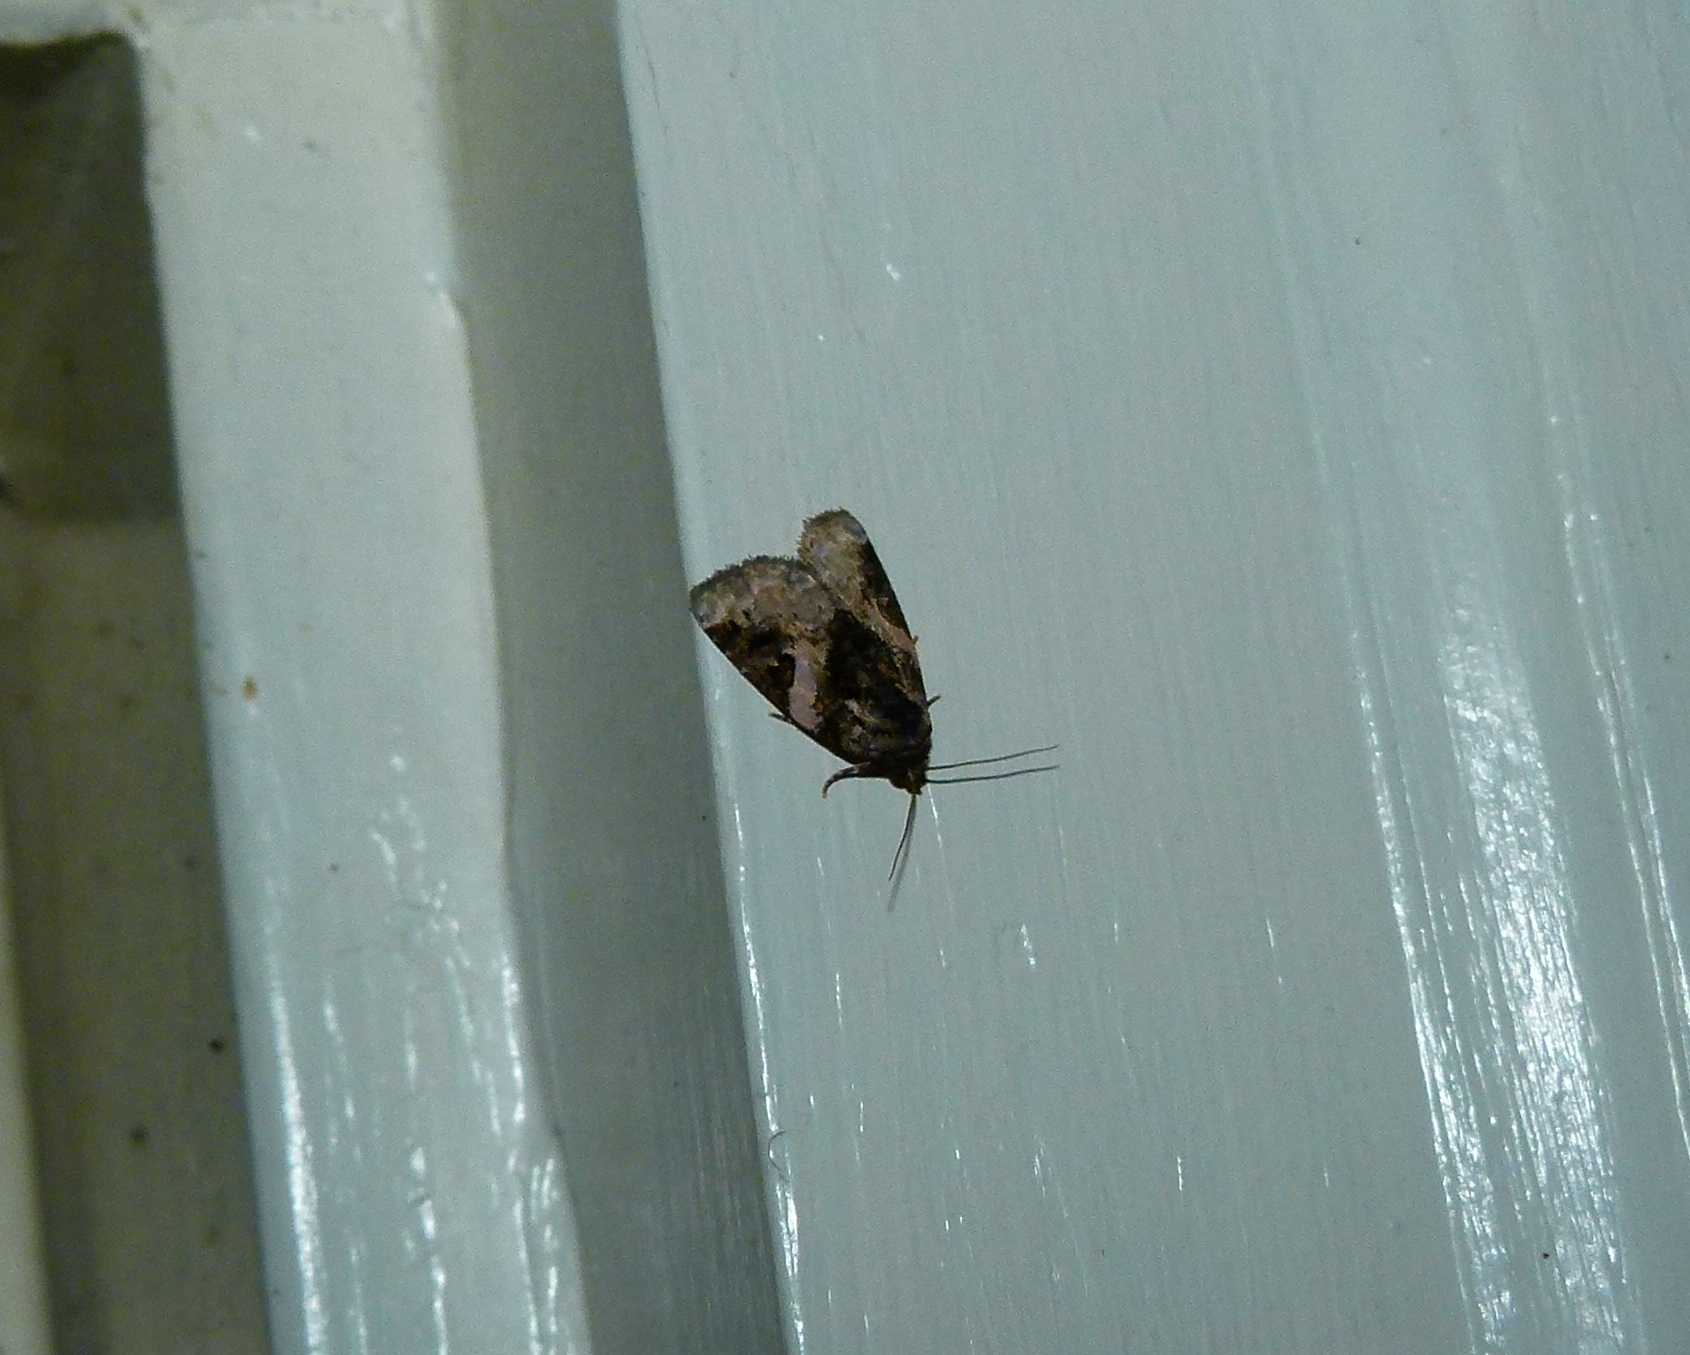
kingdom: Animalia
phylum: Arthropoda
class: Insecta
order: Lepidoptera
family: Noctuidae
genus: Pseudeustrotia
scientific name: Pseudeustrotia carneola
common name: Pink-barred lithacodia moth
